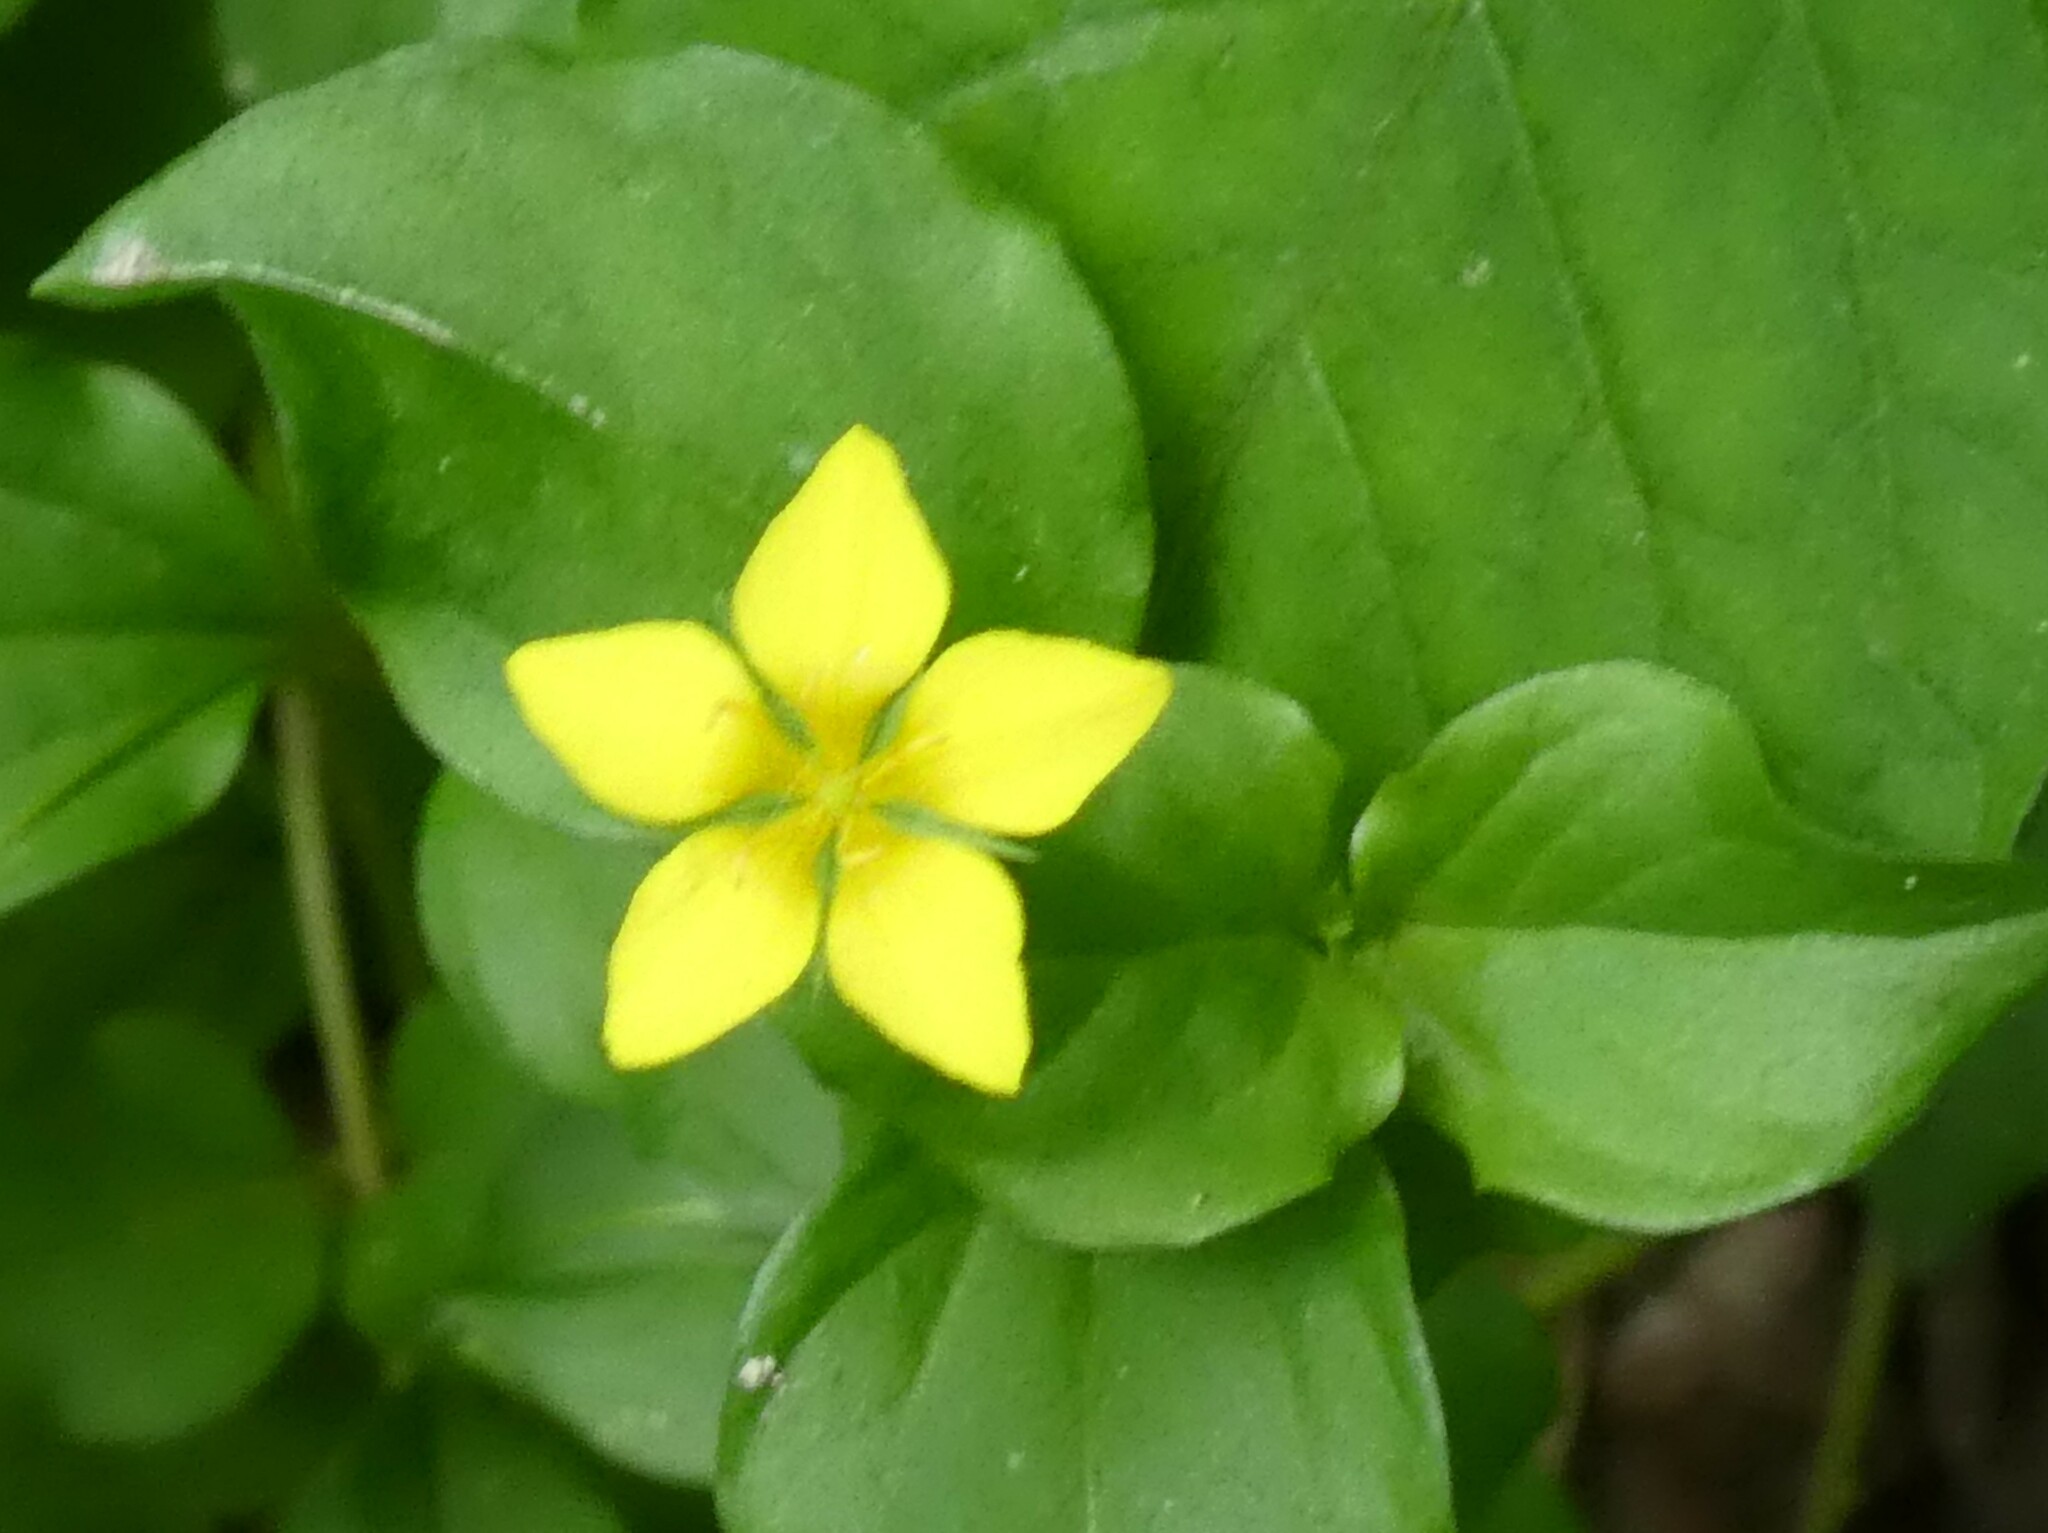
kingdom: Plantae
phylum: Tracheophyta
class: Magnoliopsida
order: Ericales
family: Primulaceae
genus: Lysimachia
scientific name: Lysimachia nemorum
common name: Yellow pimpernel
